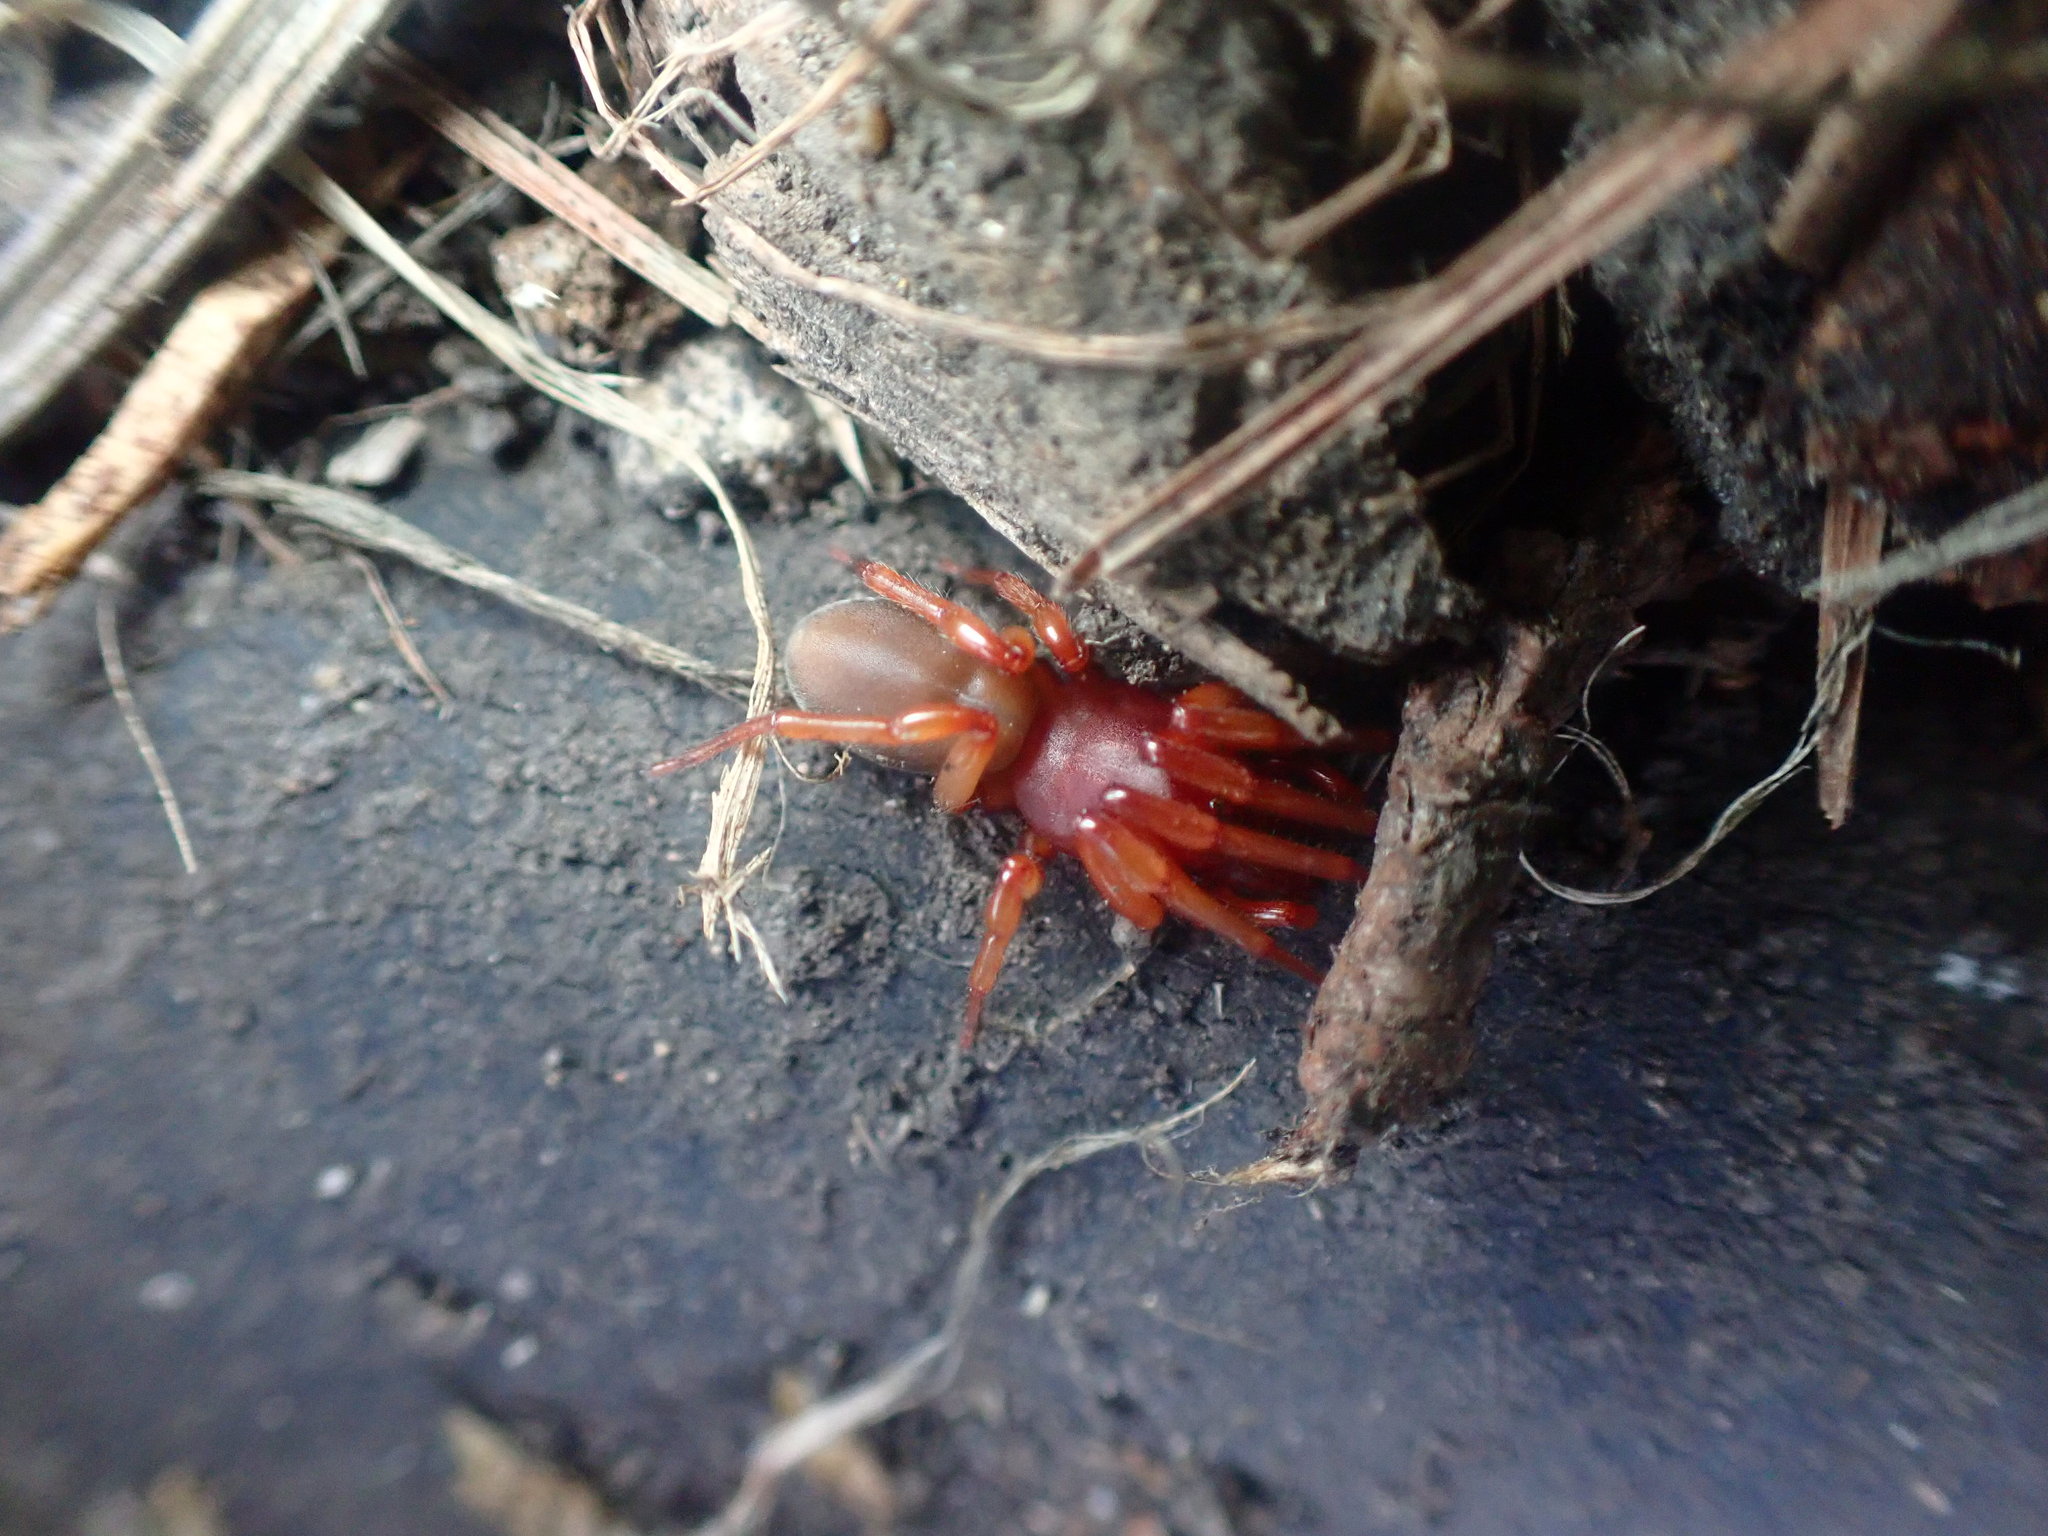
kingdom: Animalia
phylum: Arthropoda
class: Arachnida
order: Araneae
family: Dysderidae
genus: Dysdera
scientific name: Dysdera crocata
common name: Woodlouse spider
